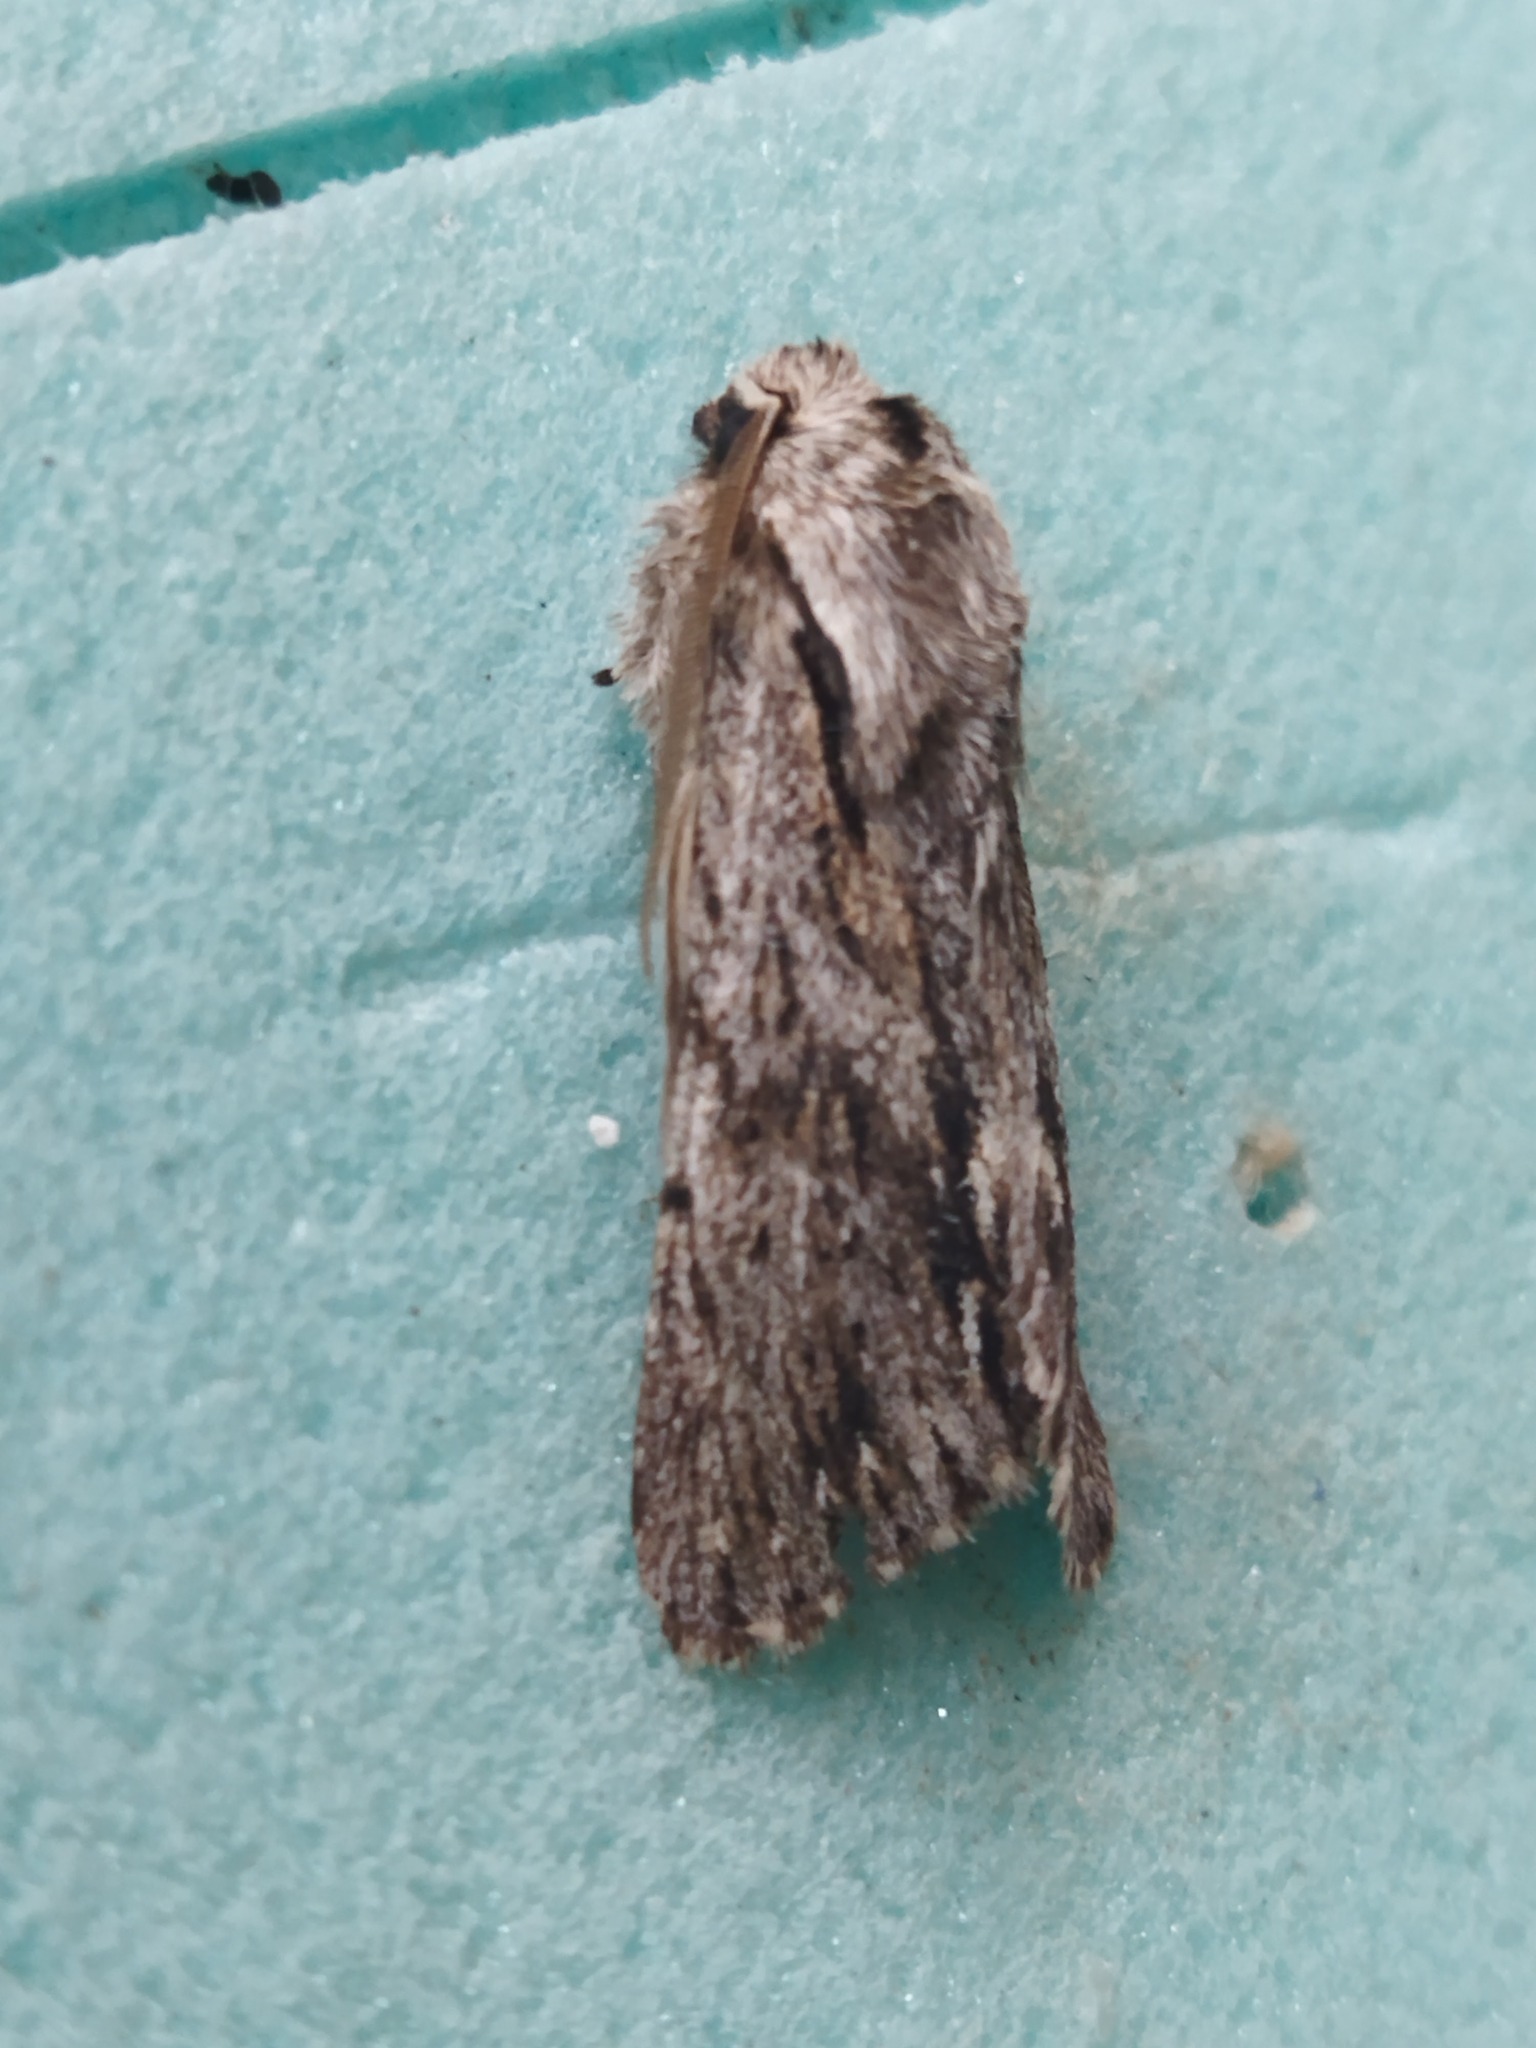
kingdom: Animalia
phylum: Arthropoda
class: Insecta
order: Lepidoptera
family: Noctuidae
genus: Asteroscopus
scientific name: Asteroscopus sphinx
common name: The sprawler
